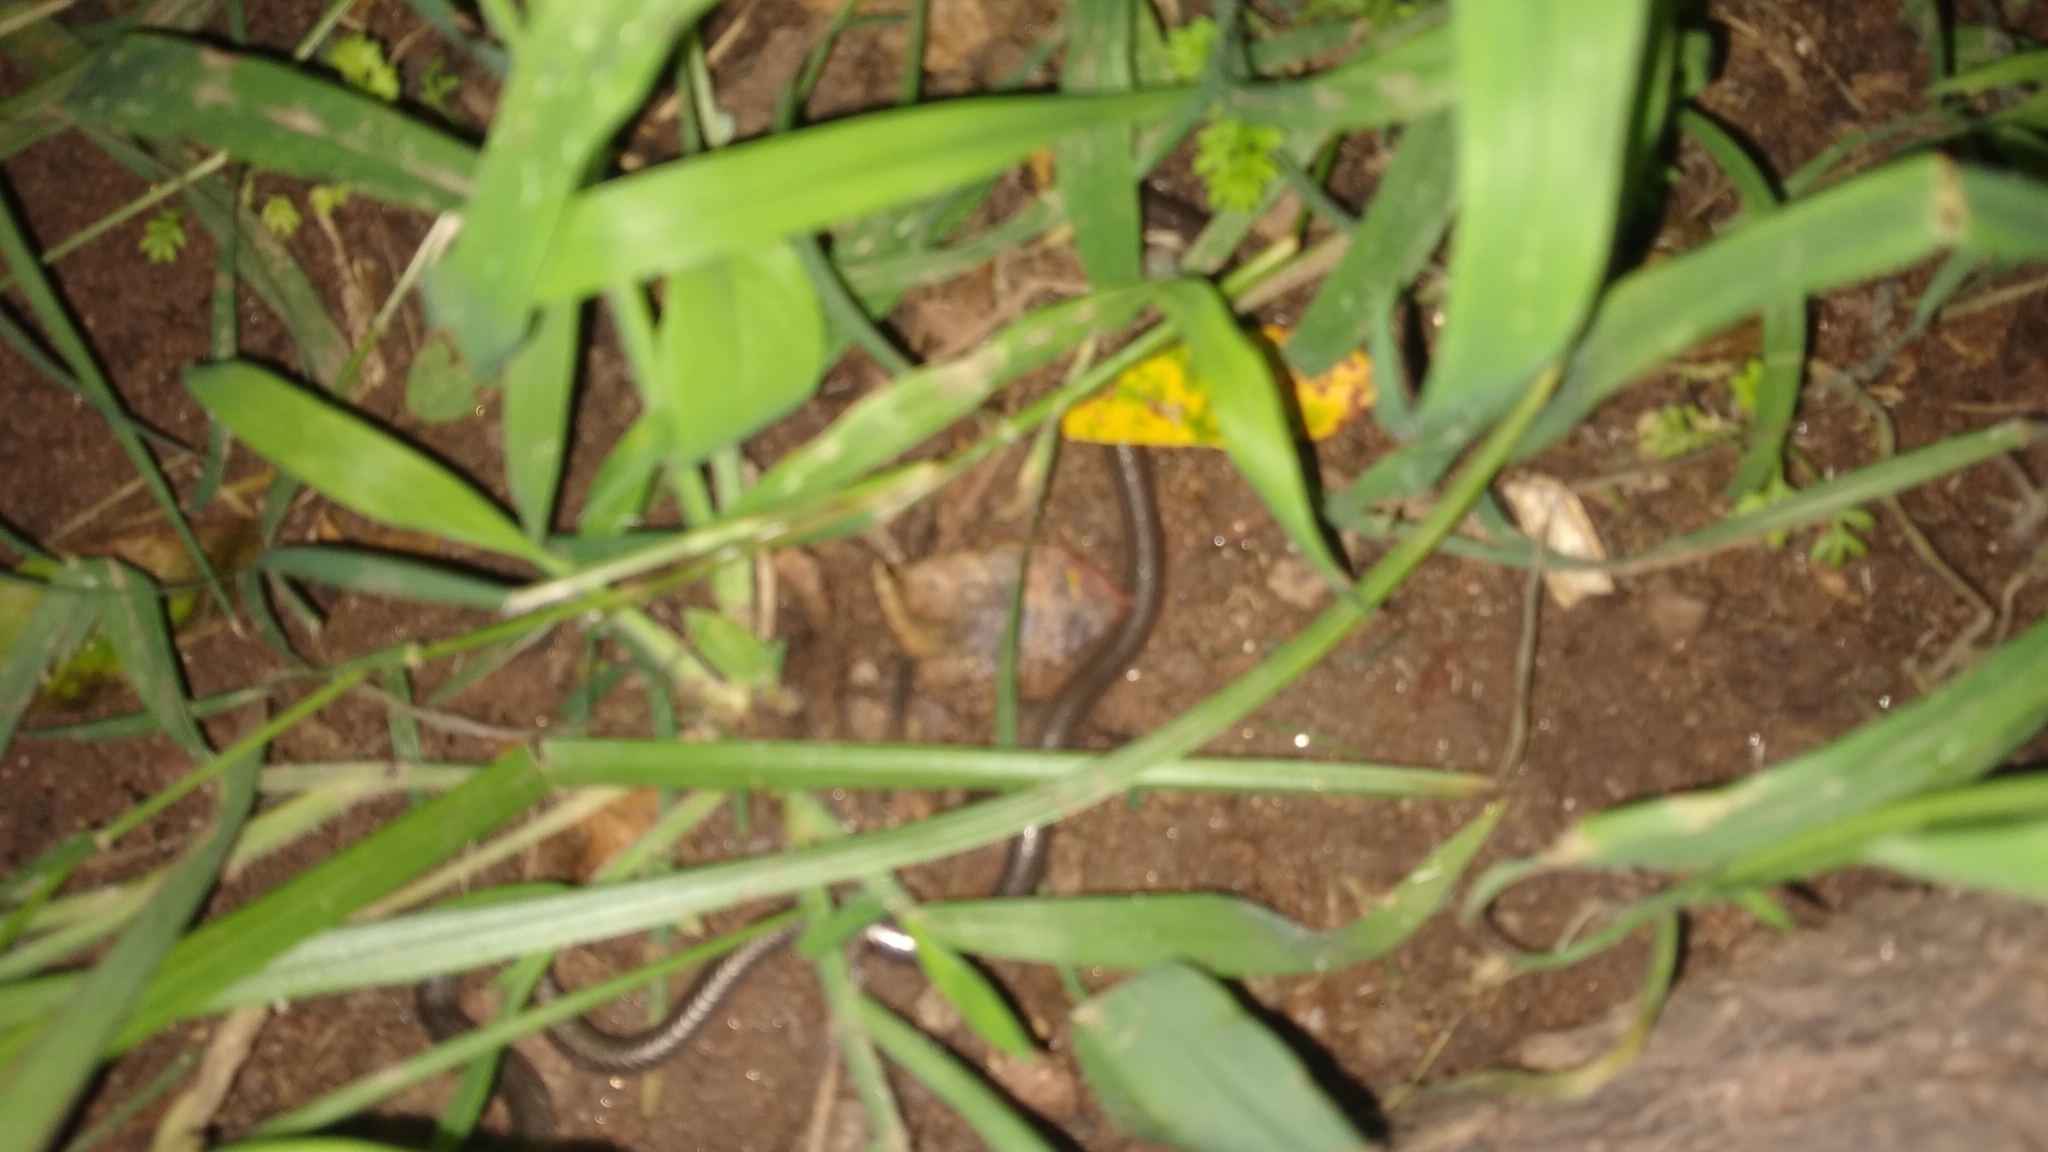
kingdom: Animalia
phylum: Chordata
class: Squamata
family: Leptotyphlopidae
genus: Epictia
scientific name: Epictia albipuncta
